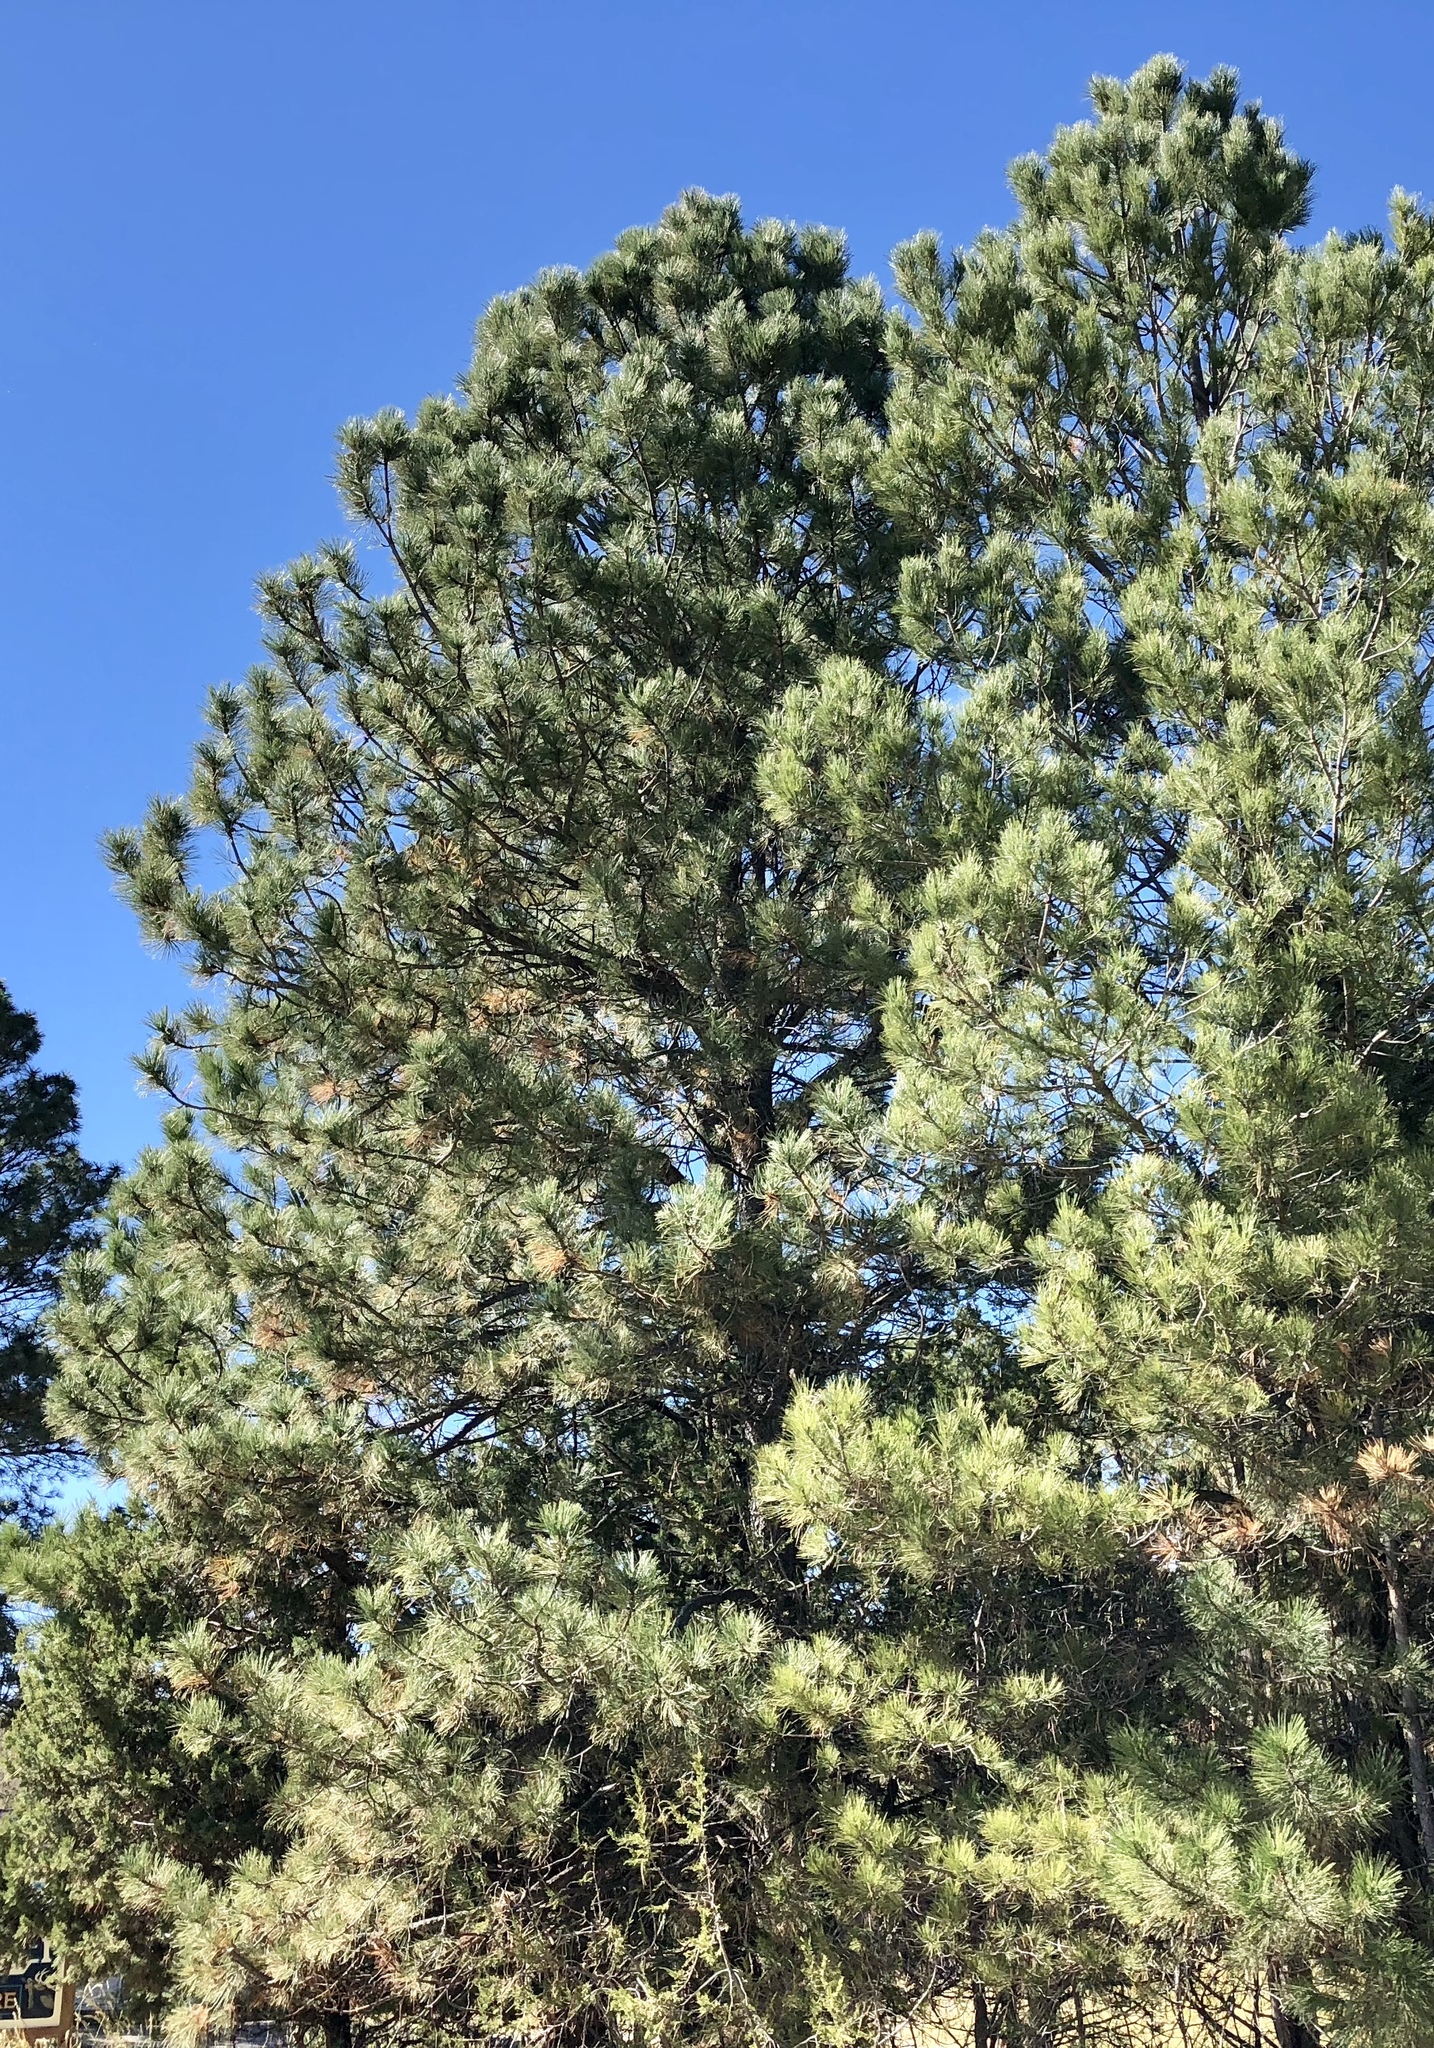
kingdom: Plantae
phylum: Tracheophyta
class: Pinopsida
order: Pinales
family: Pinaceae
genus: Pinus
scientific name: Pinus ponderosa
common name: Western yellow-pine
